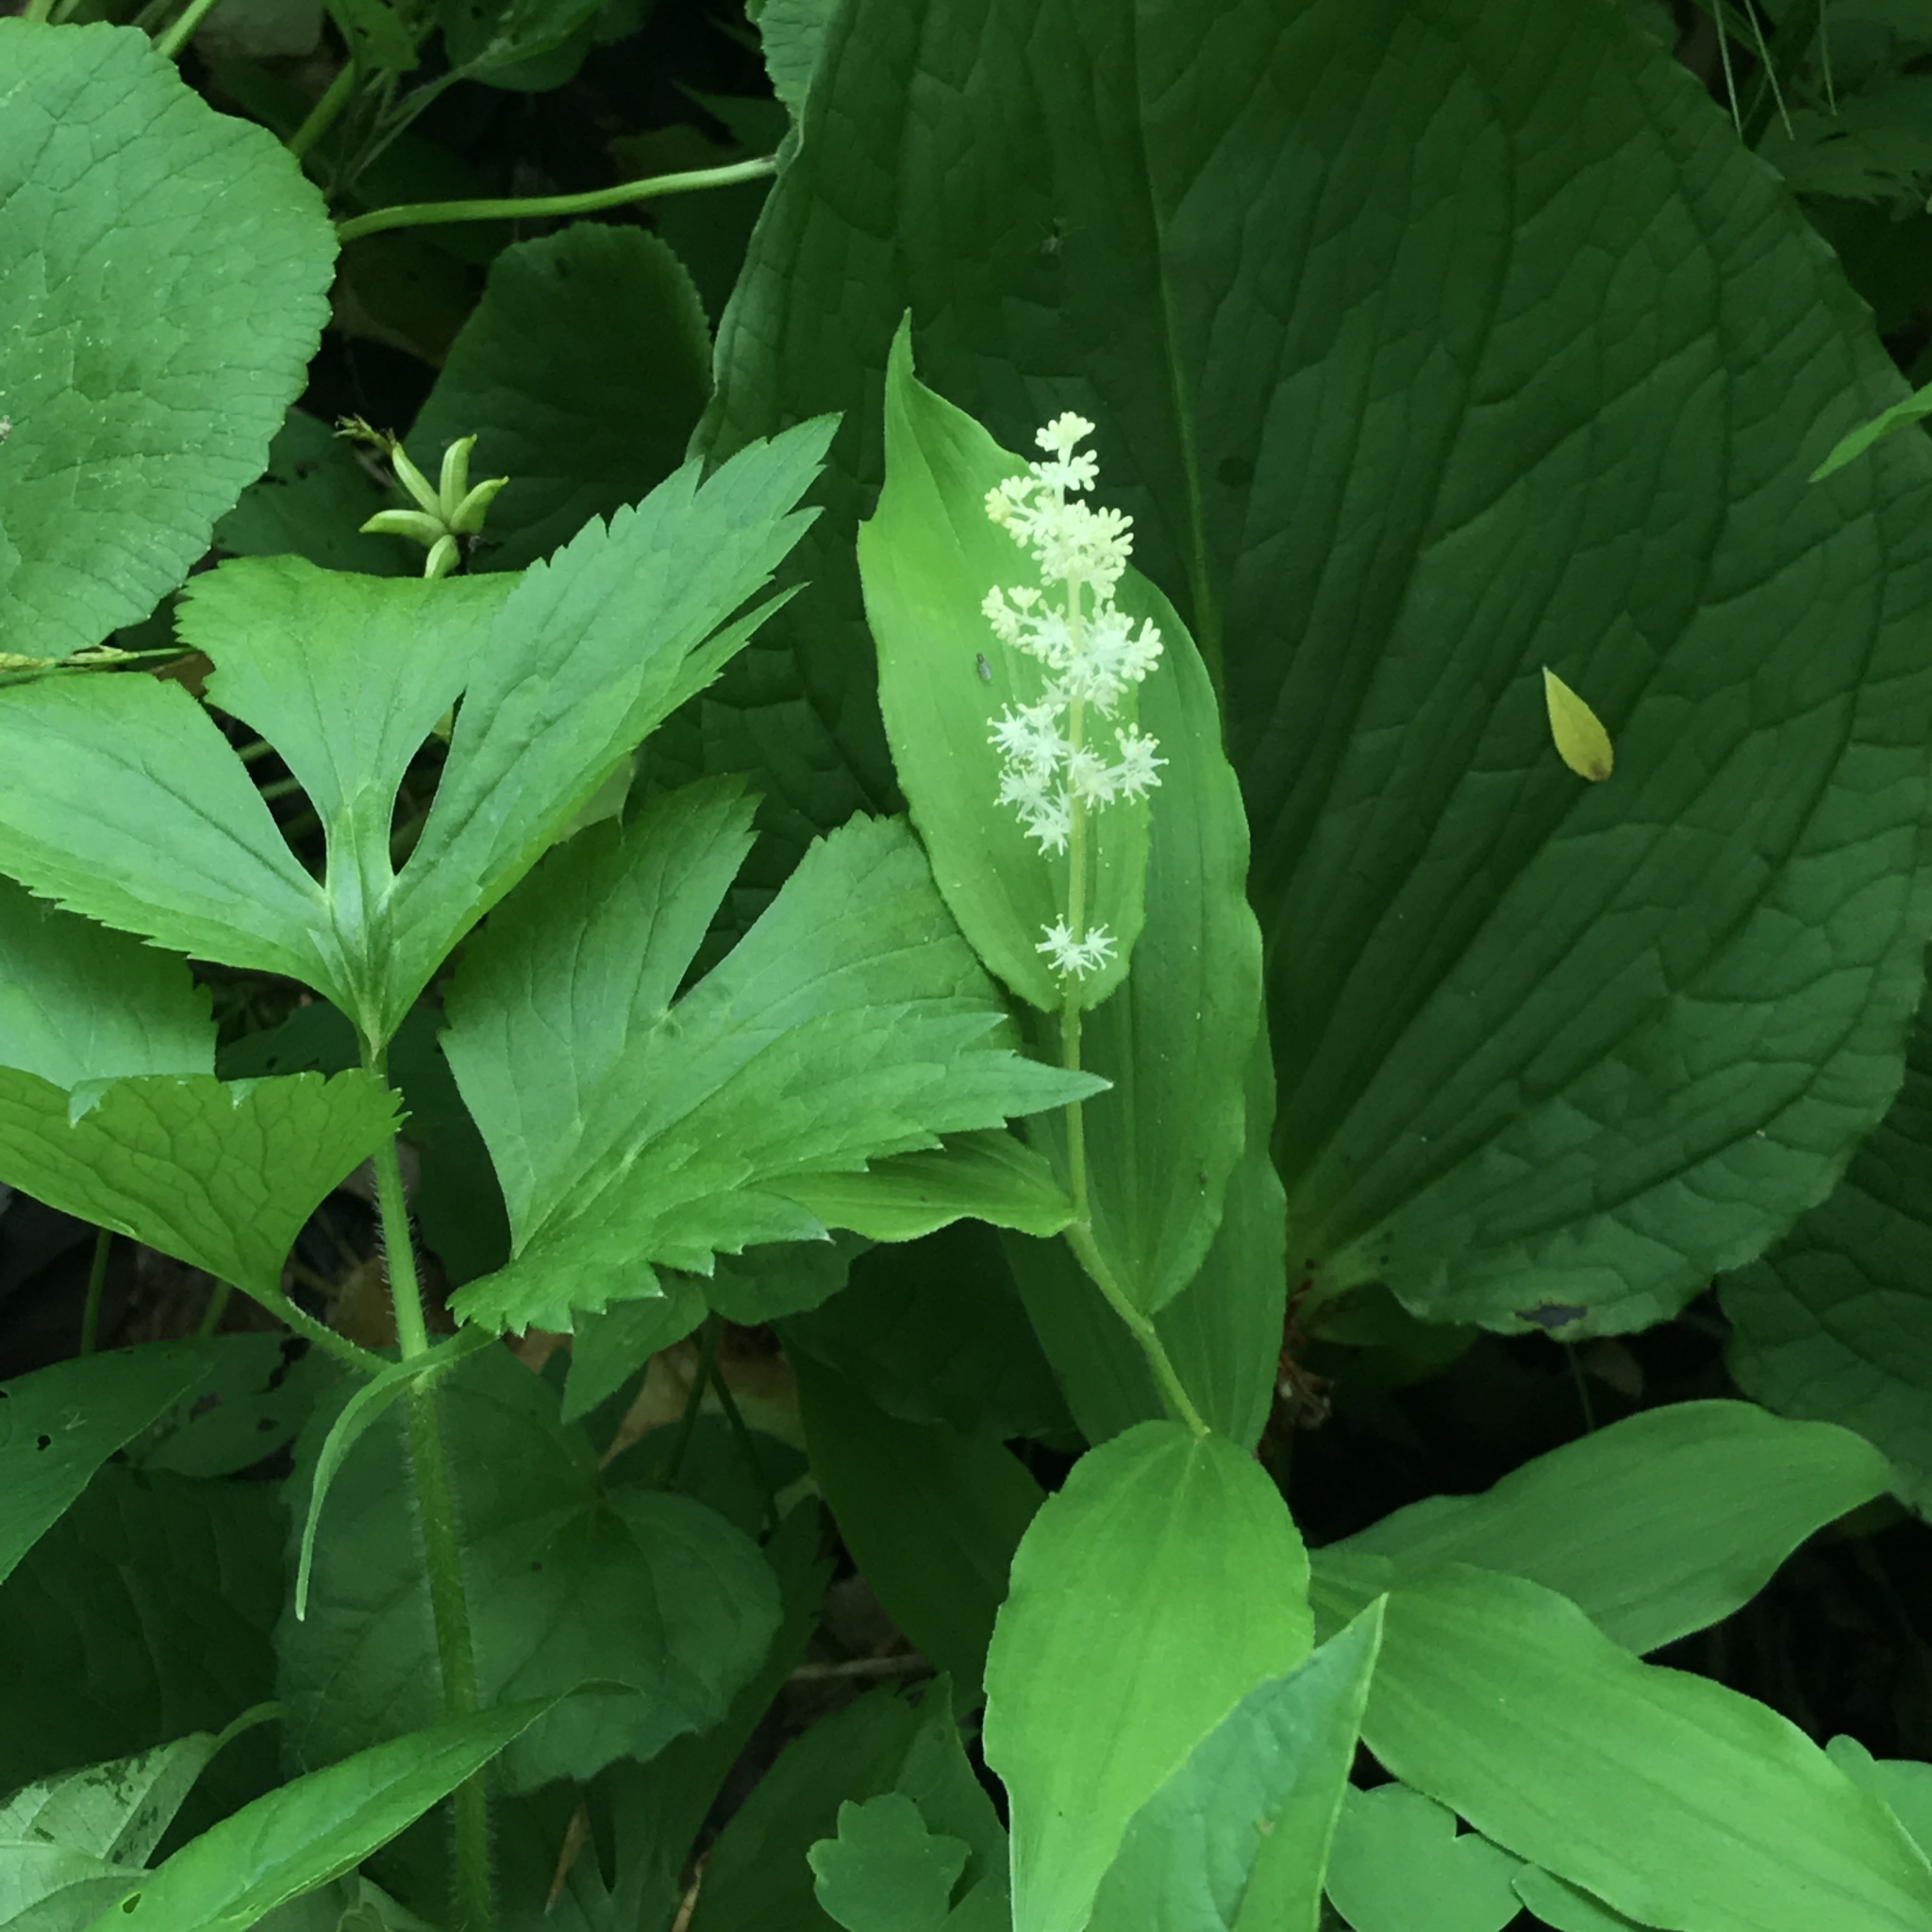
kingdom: Plantae
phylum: Tracheophyta
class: Liliopsida
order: Asparagales
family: Asparagaceae
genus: Maianthemum
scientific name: Maianthemum racemosum
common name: False spikenard
